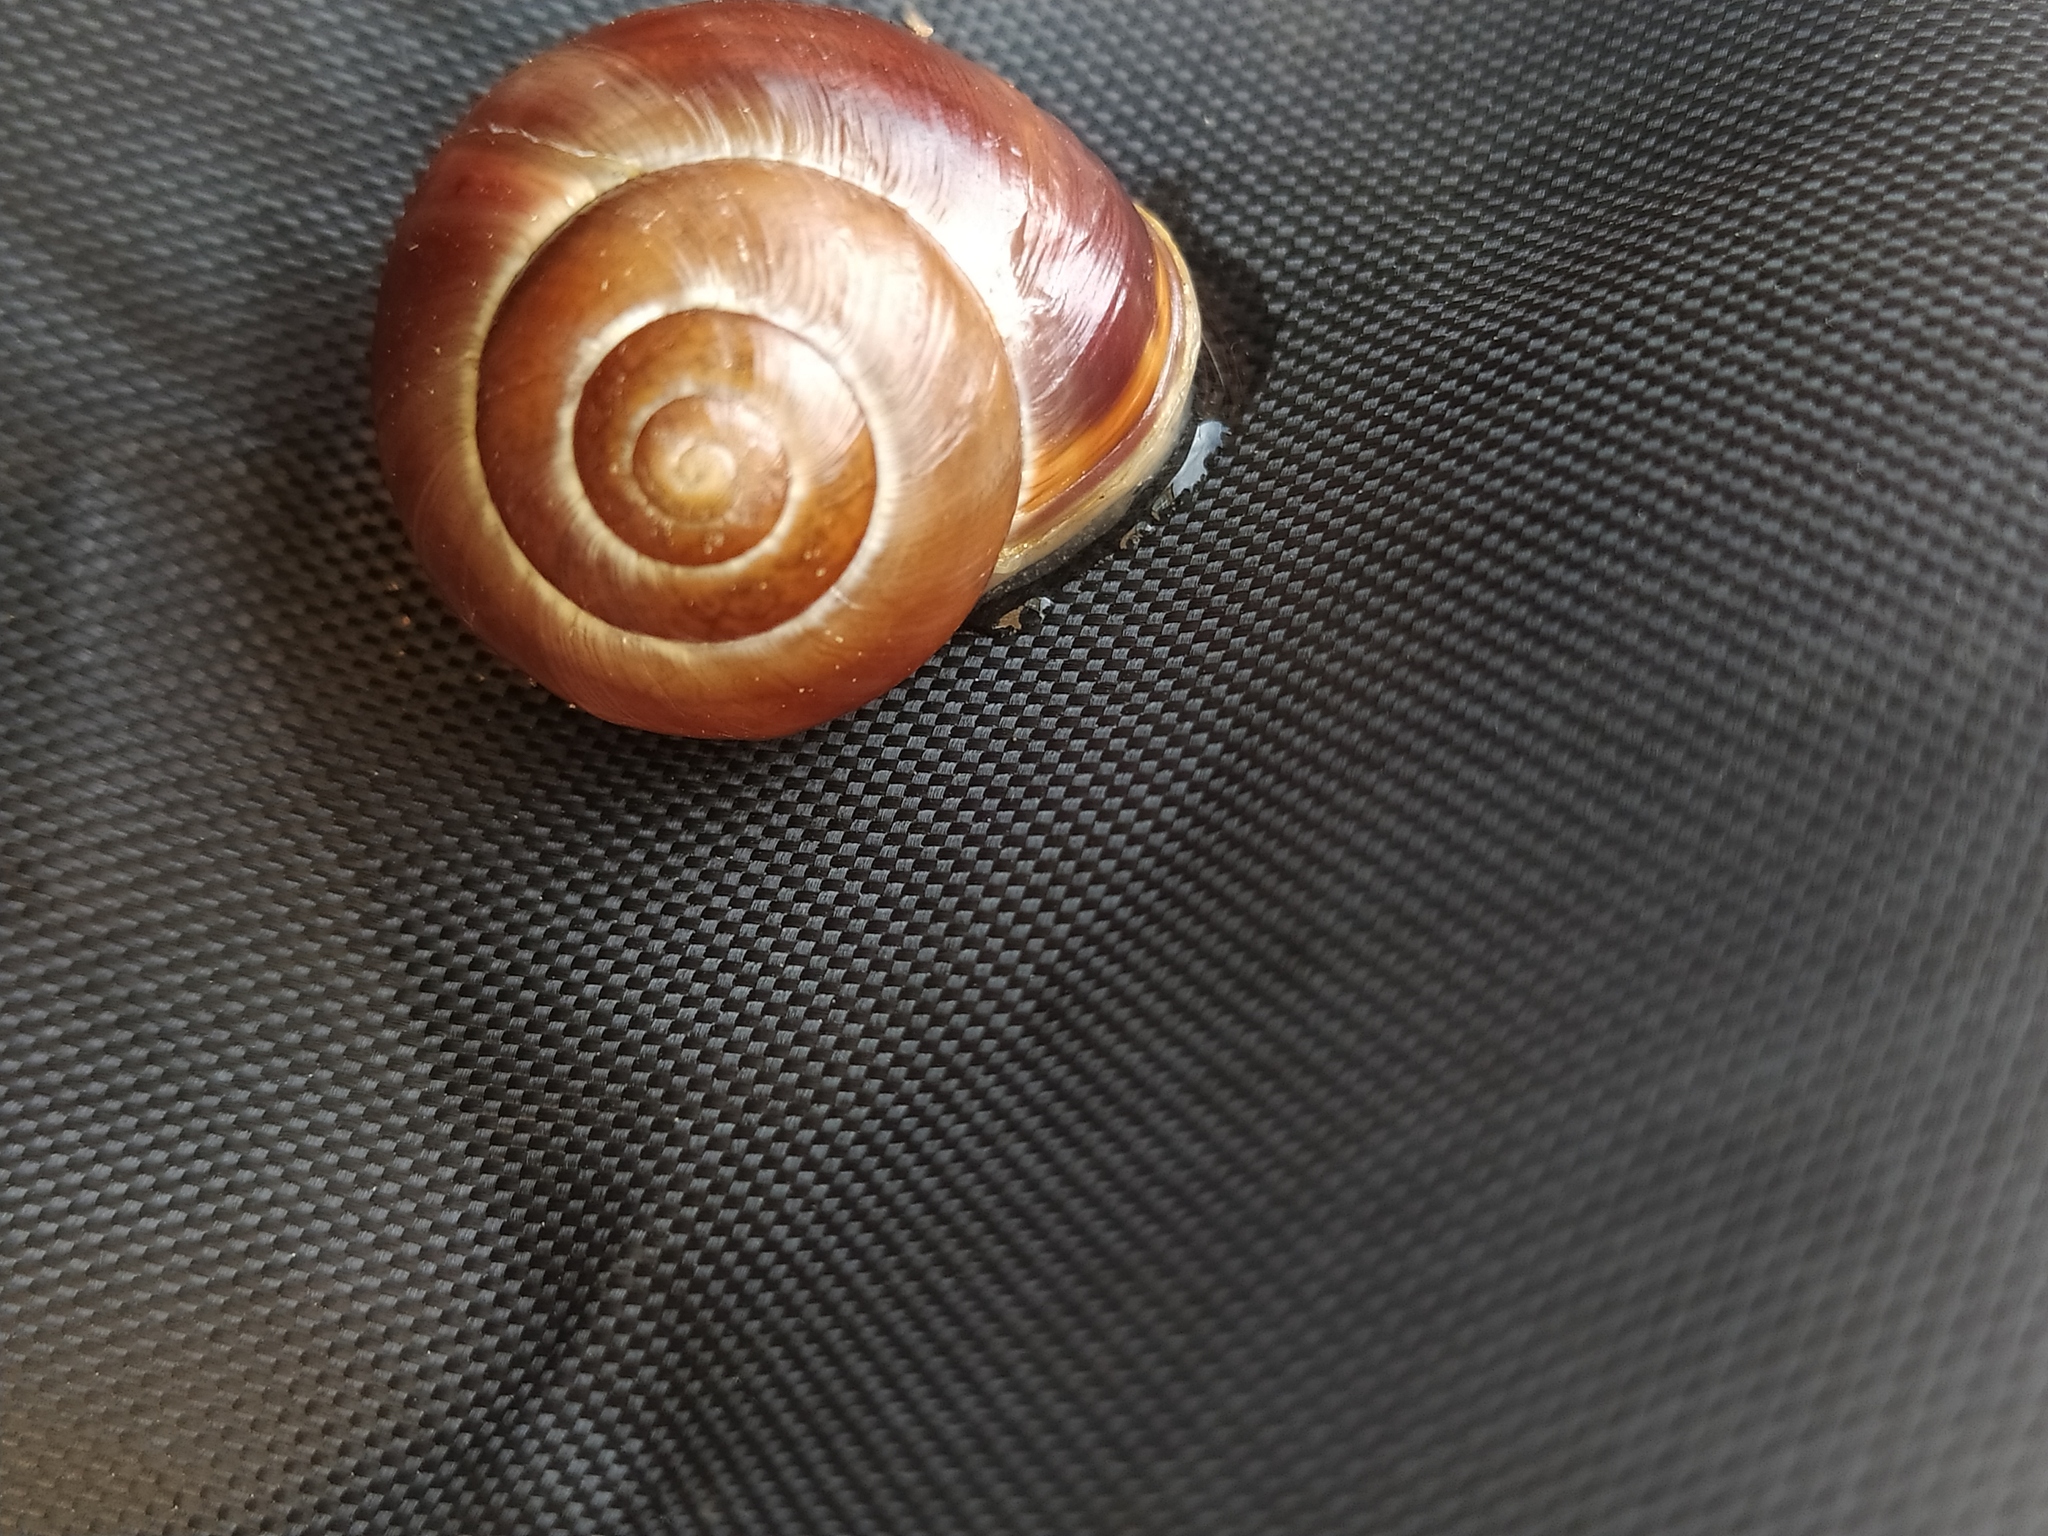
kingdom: Animalia
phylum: Mollusca
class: Gastropoda
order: Stylommatophora
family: Helicidae
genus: Cepaea
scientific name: Cepaea hortensis
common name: White-lip gardensnail
